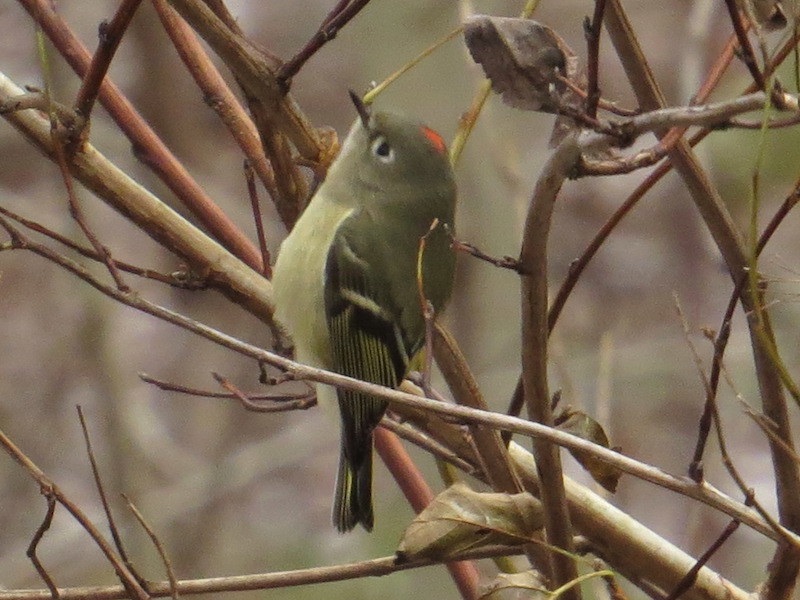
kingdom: Animalia
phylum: Chordata
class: Aves
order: Passeriformes
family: Regulidae
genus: Regulus
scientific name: Regulus calendula
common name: Ruby-crowned kinglet
